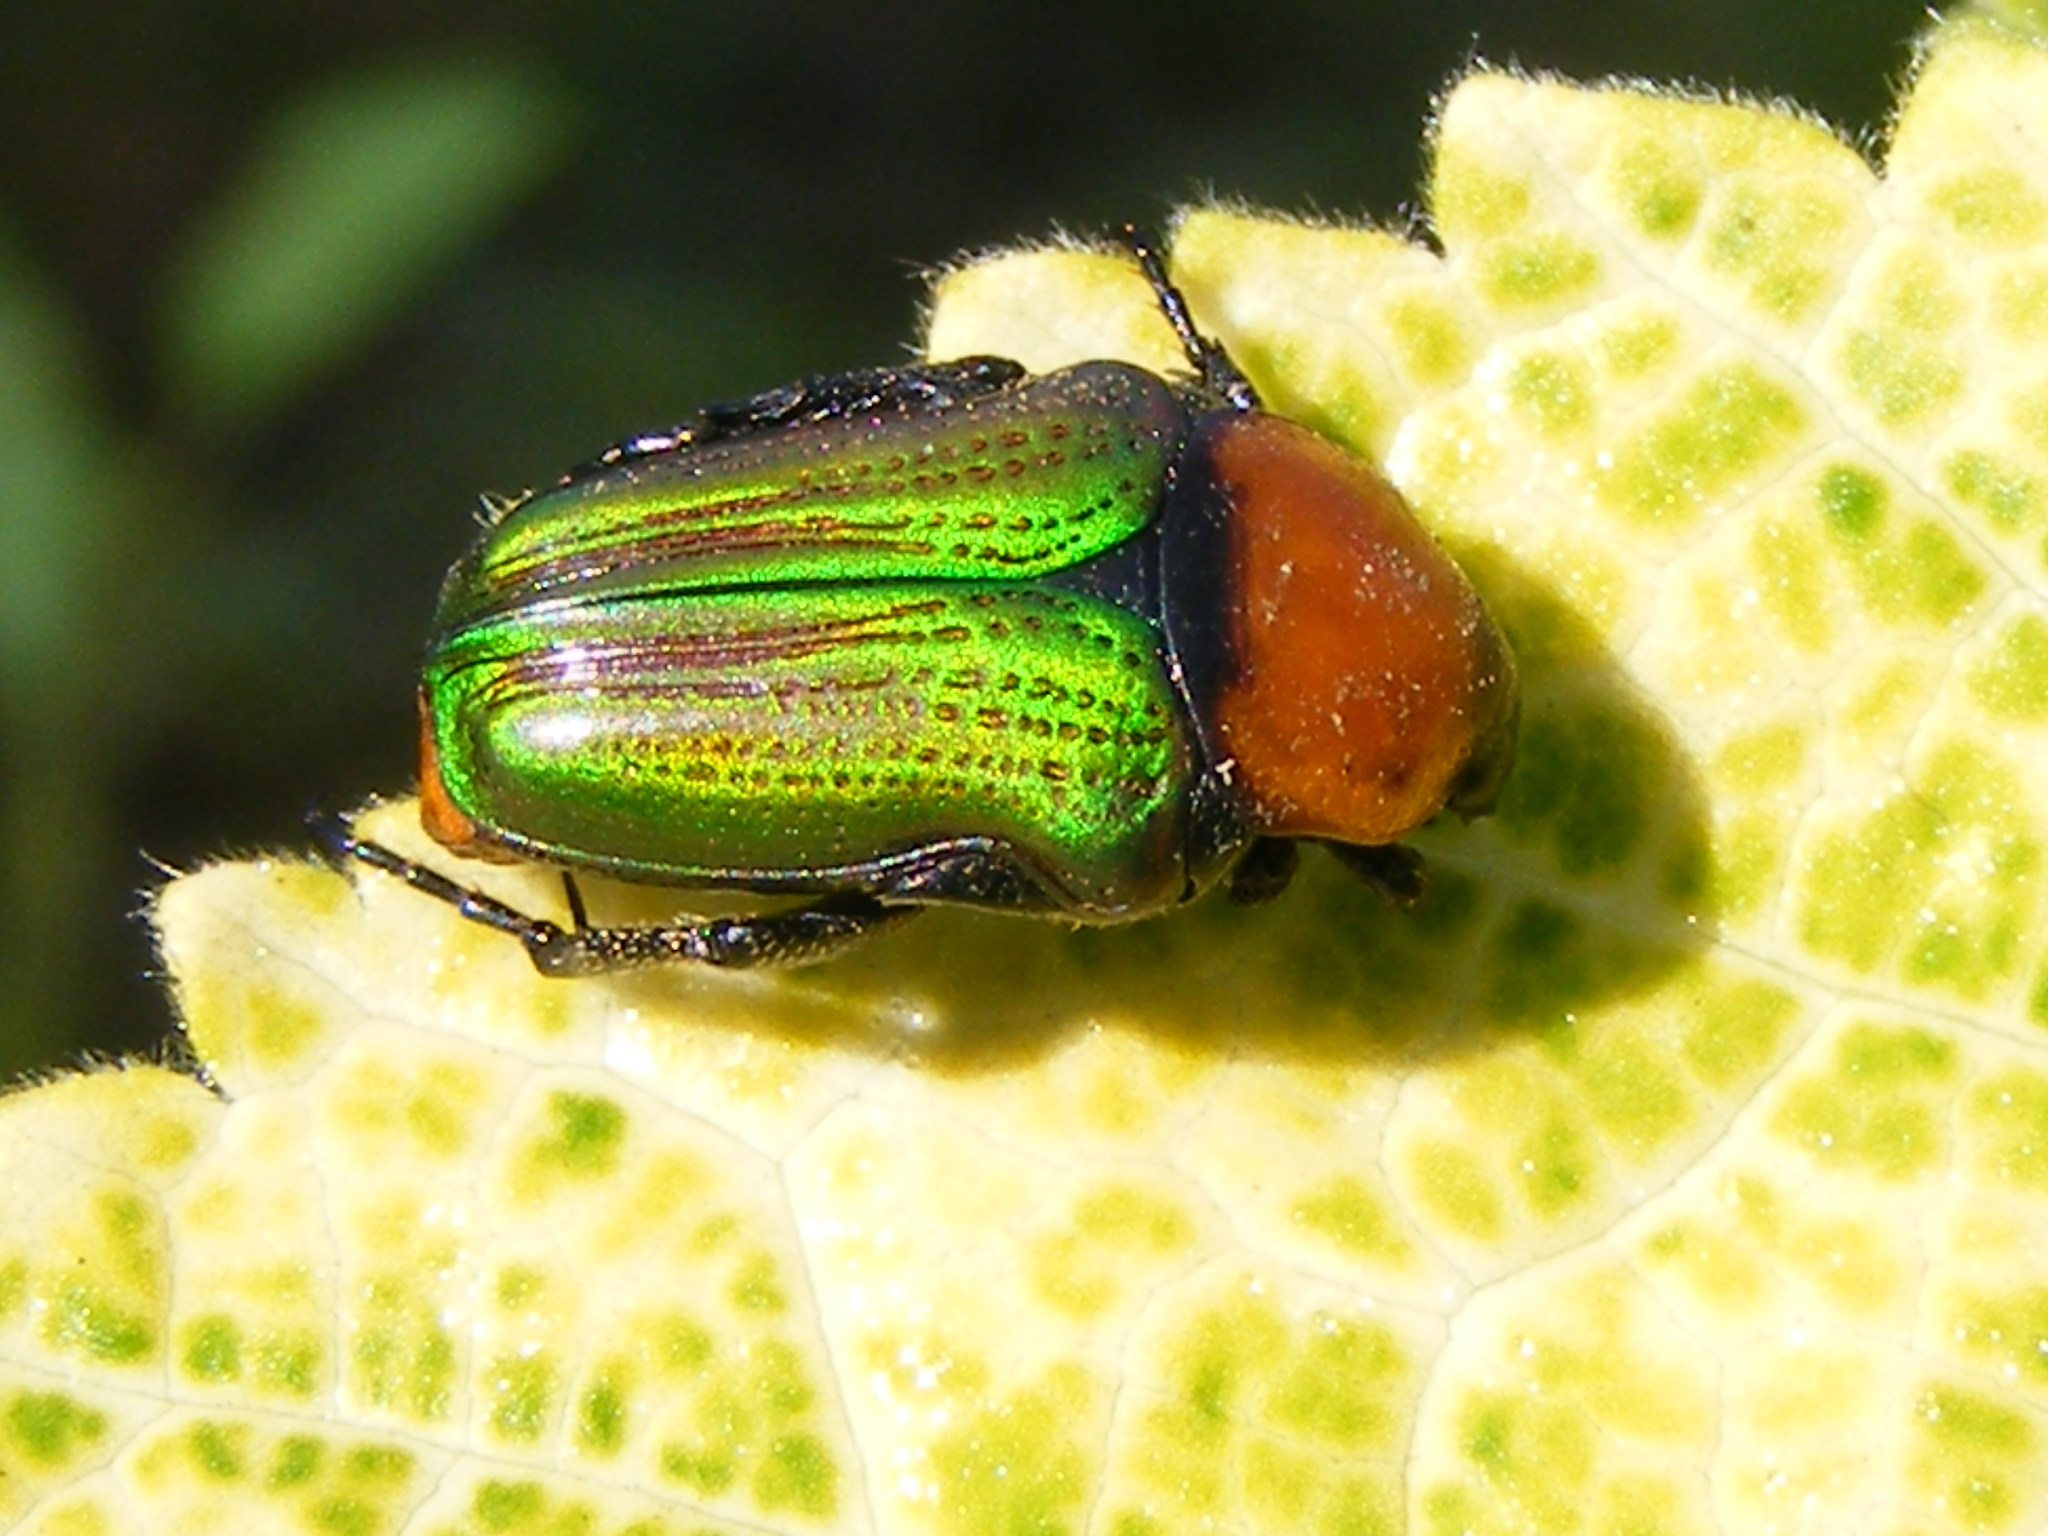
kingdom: Animalia
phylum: Arthropoda
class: Insecta
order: Coleoptera
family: Scarabaeidae
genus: Leucocelis
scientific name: Leucocelis amethystina
